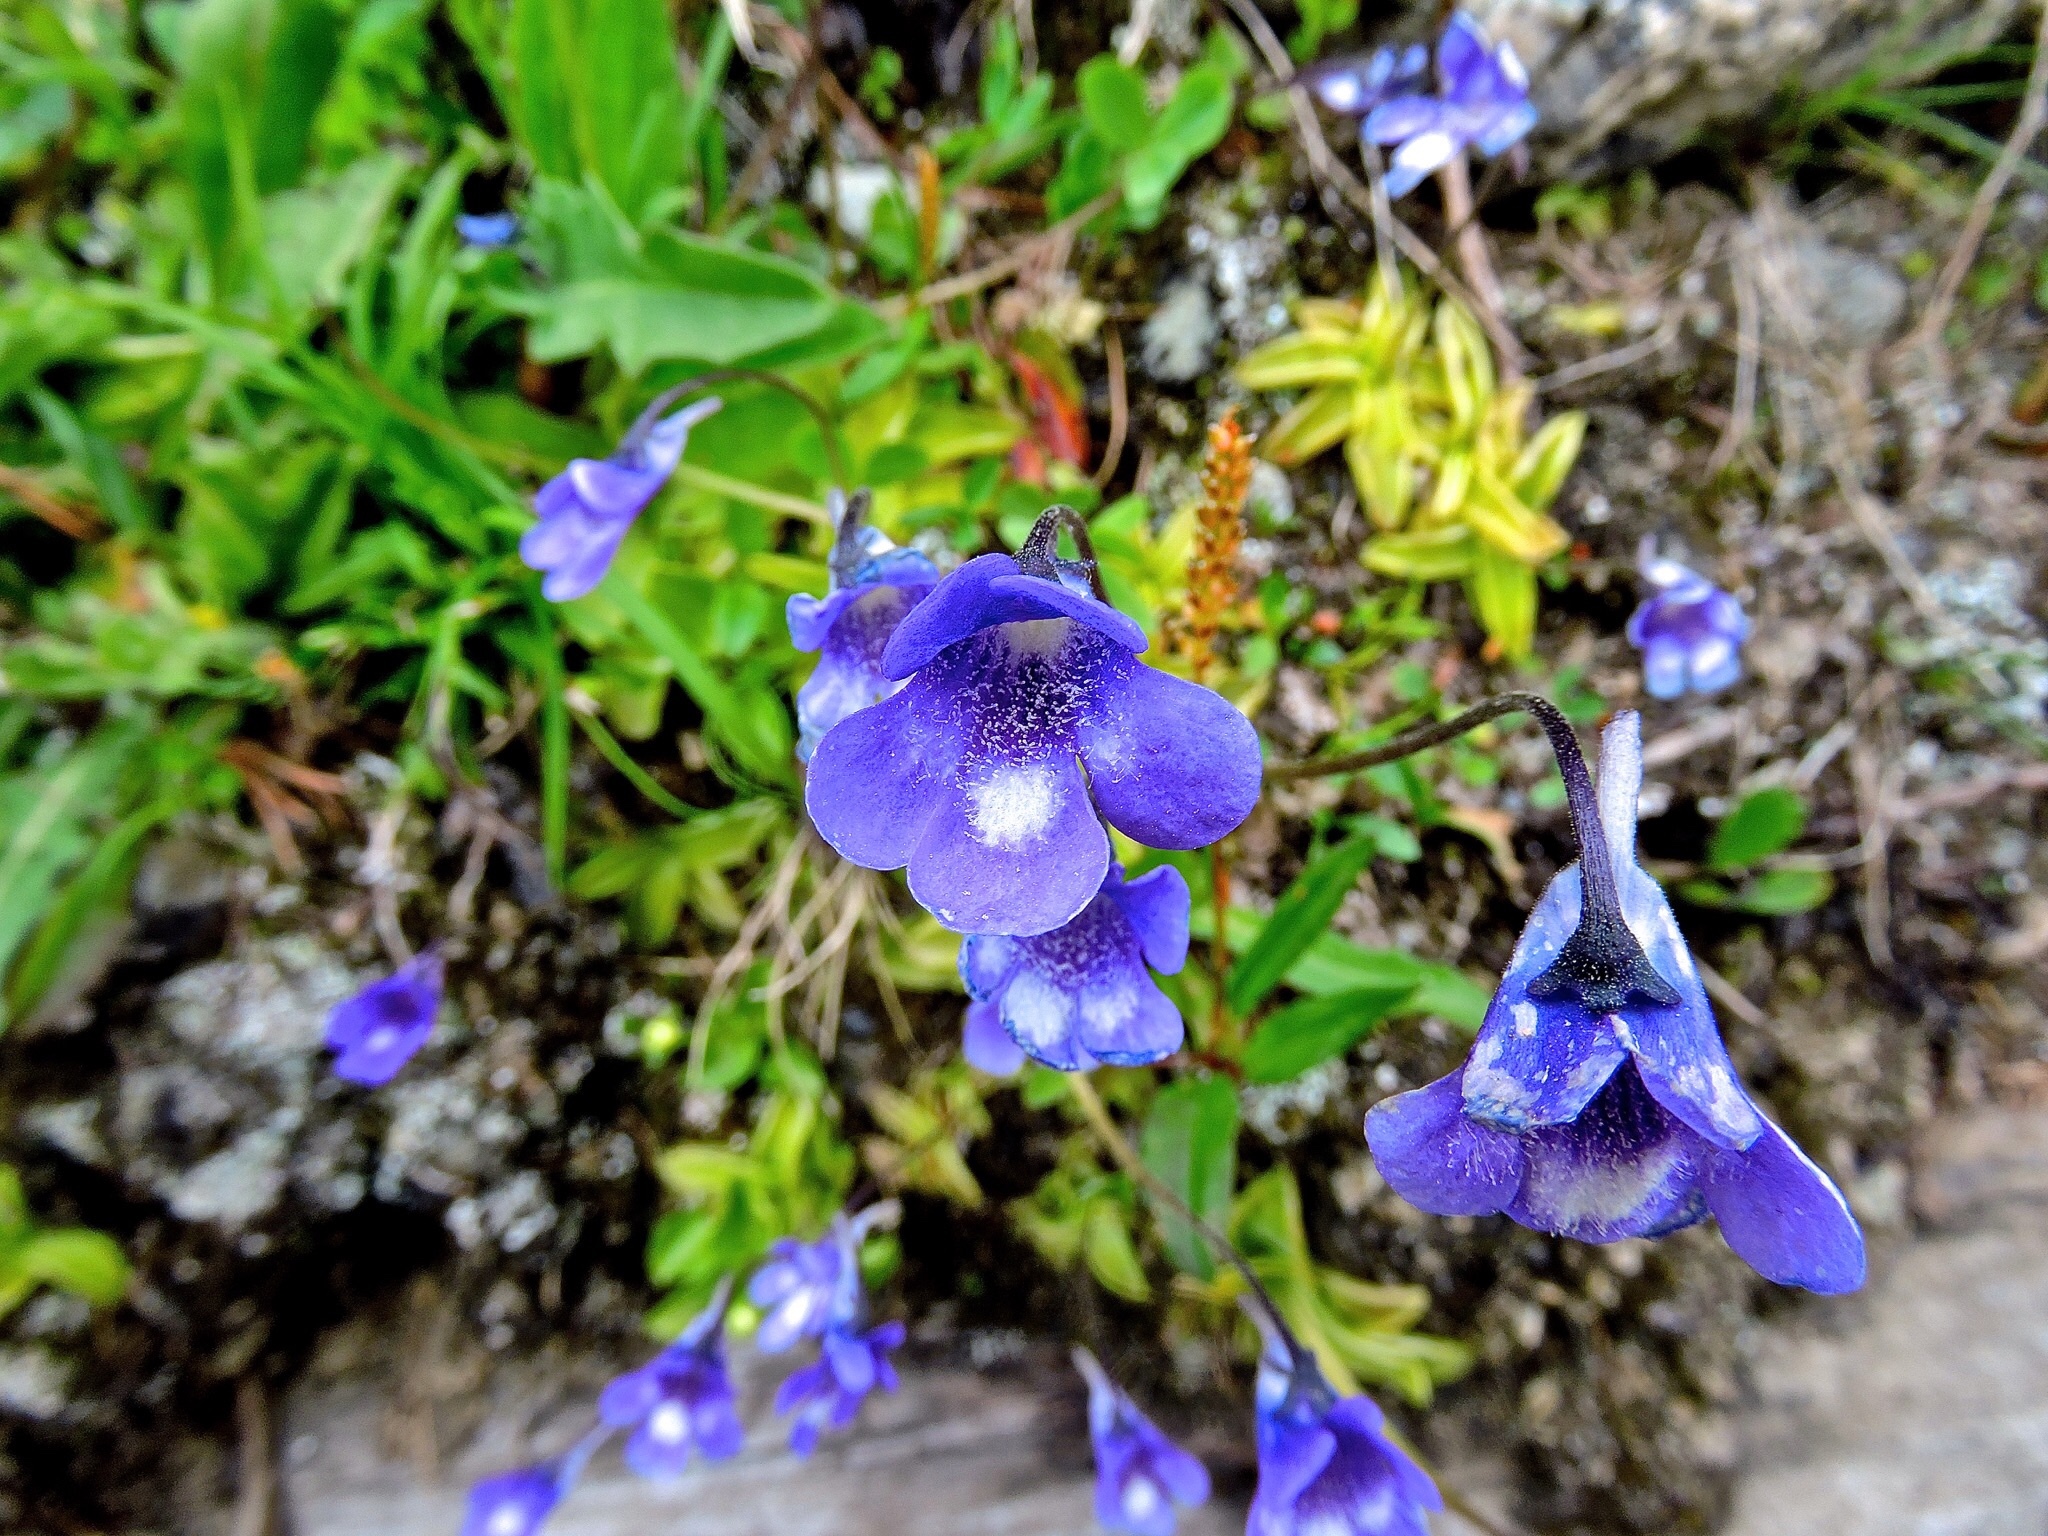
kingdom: Plantae
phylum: Tracheophyta
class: Magnoliopsida
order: Lamiales
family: Lentibulariaceae
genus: Pinguicula
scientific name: Pinguicula leptoceras
